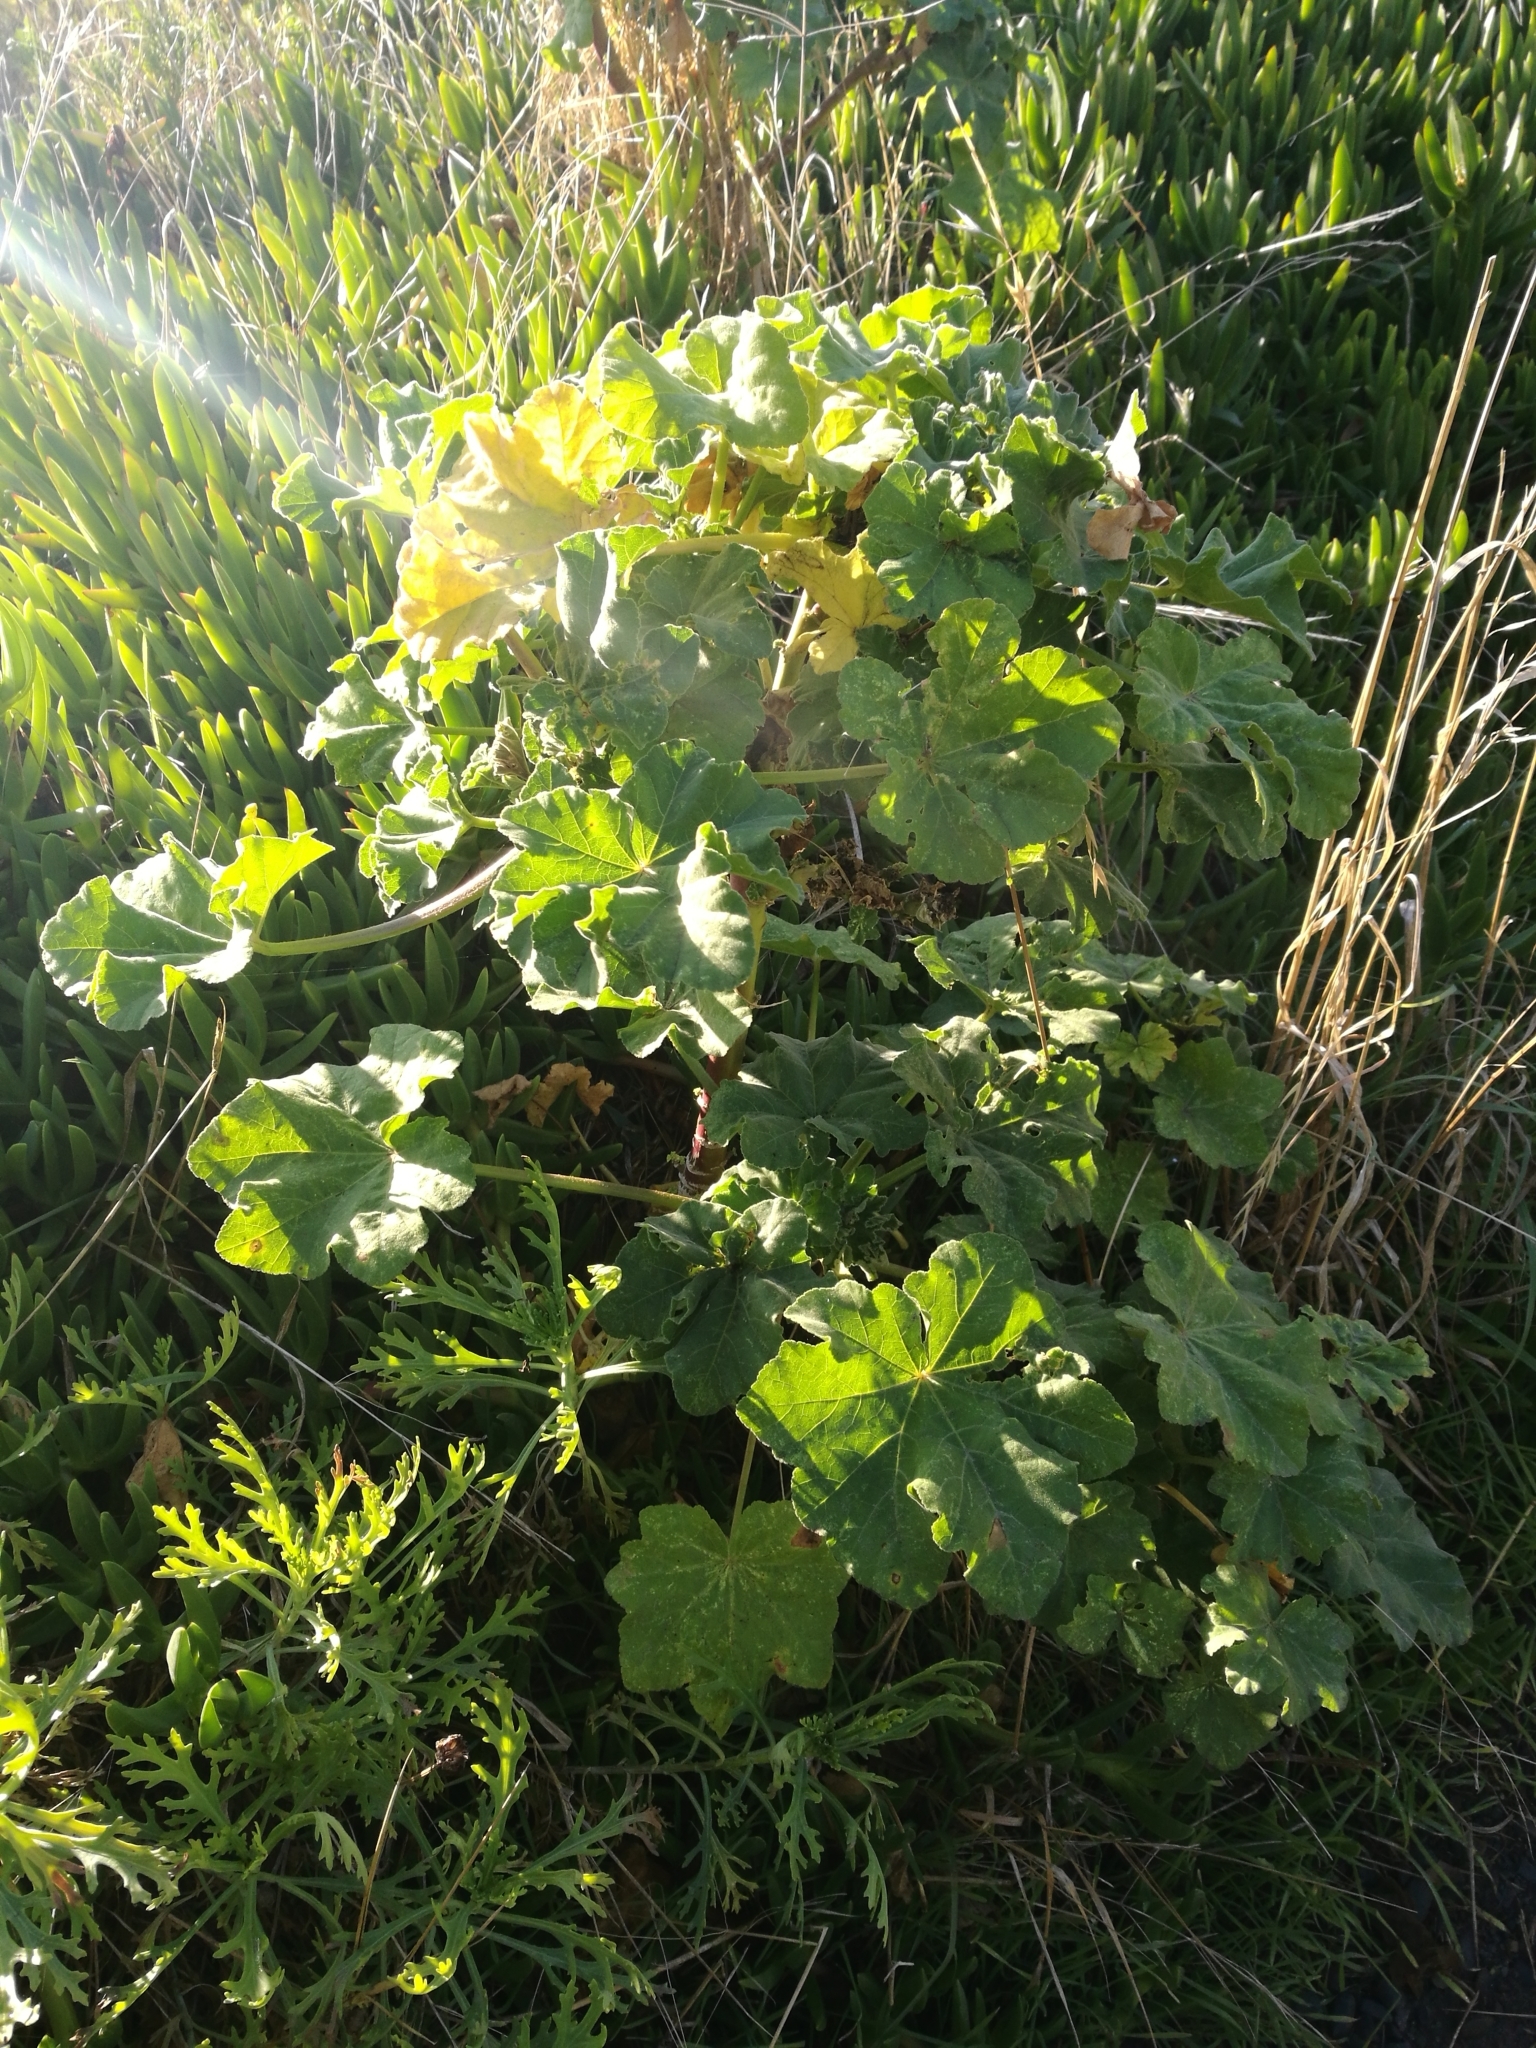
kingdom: Plantae
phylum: Tracheophyta
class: Magnoliopsida
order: Malvales
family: Malvaceae
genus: Malva
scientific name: Malva arborea
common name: Tree mallow
